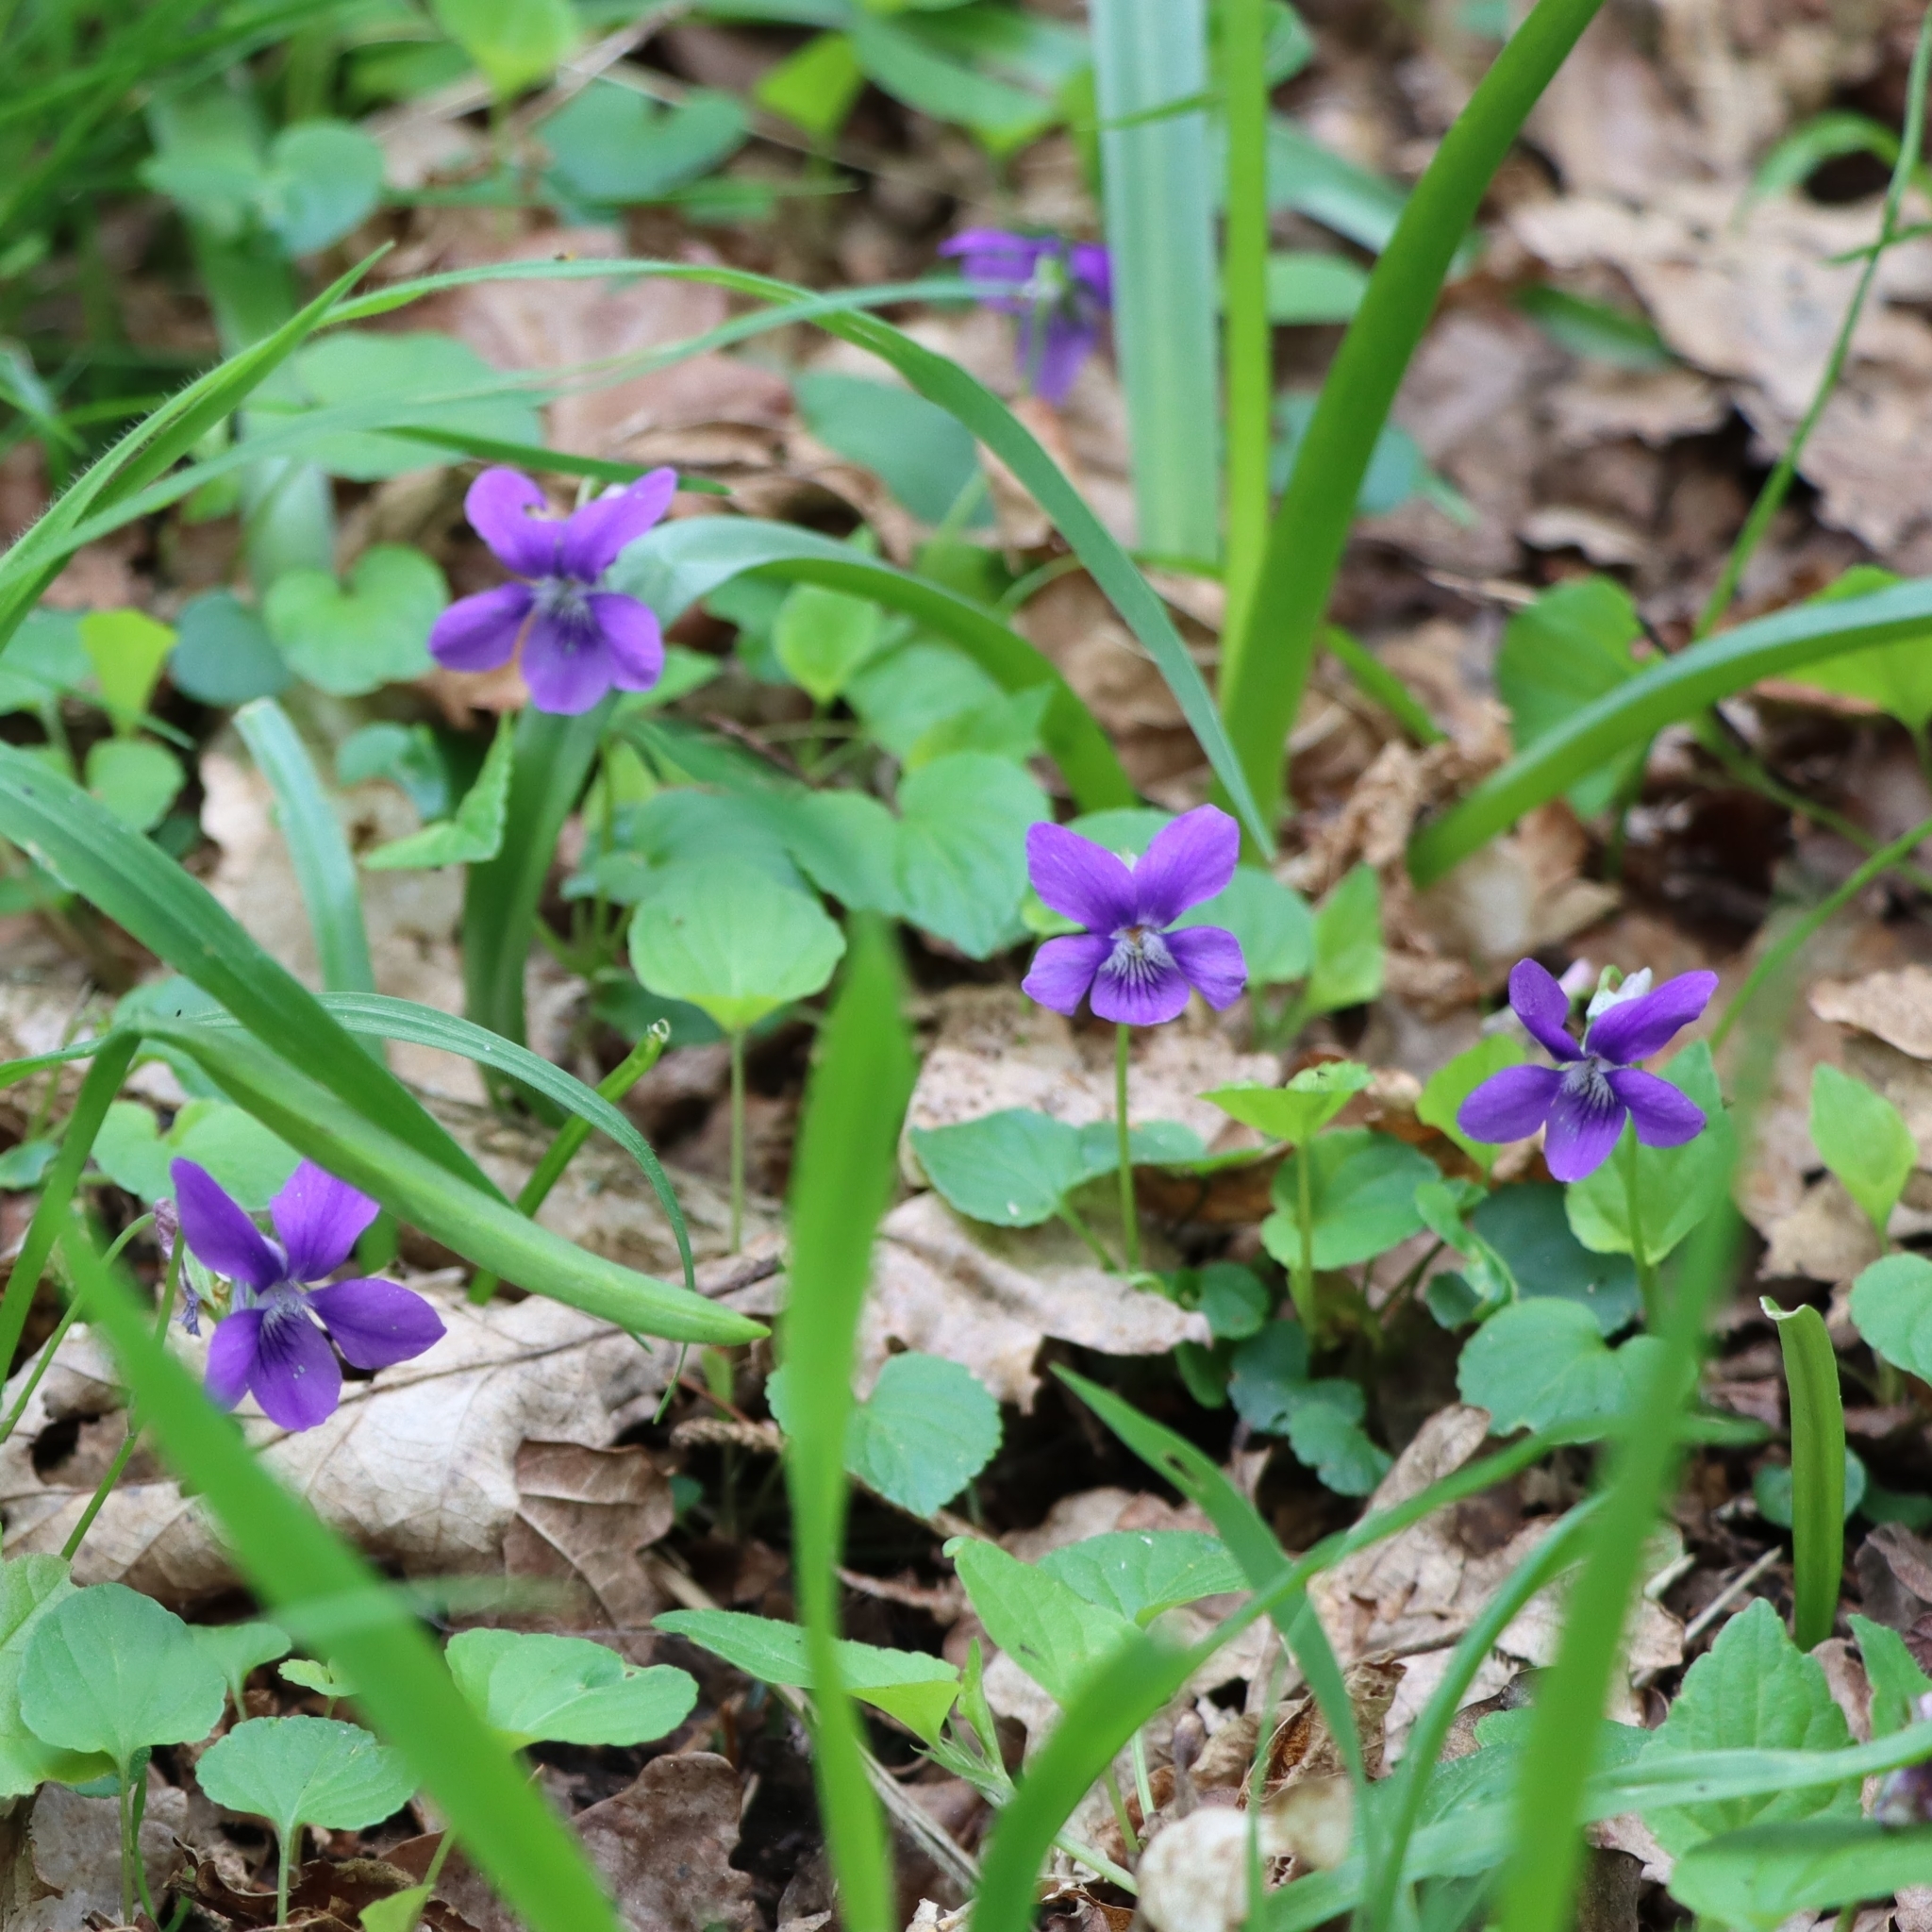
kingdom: Plantae
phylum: Tracheophyta
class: Magnoliopsida
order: Malpighiales
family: Violaceae
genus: Viola
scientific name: Viola riviniana
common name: Common dog-violet
